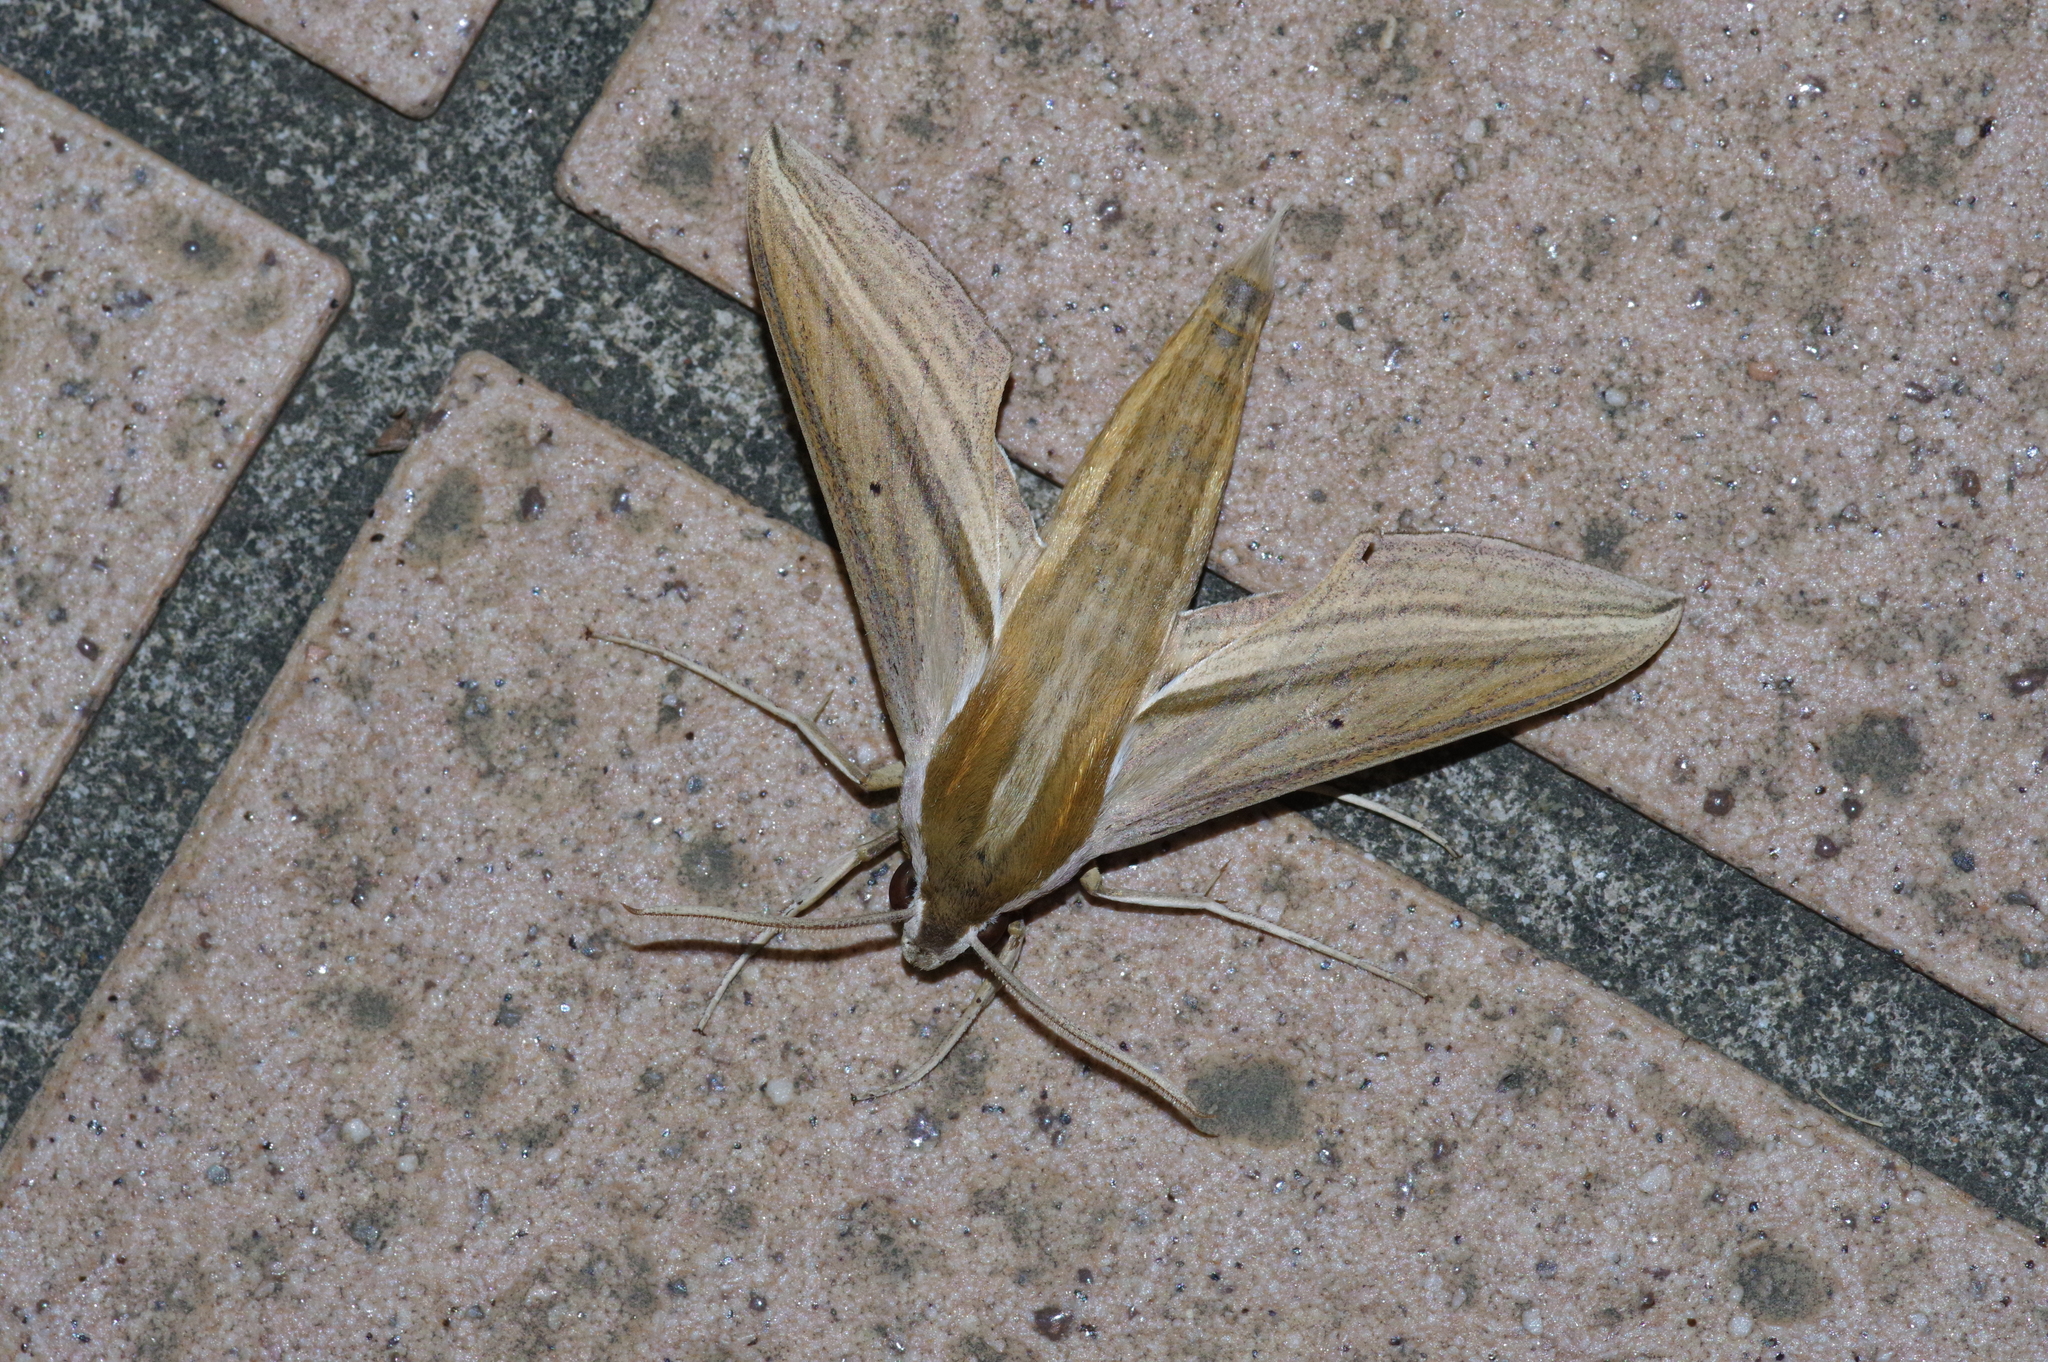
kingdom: Animalia
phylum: Arthropoda
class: Insecta
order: Lepidoptera
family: Sphingidae
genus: Theretra
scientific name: Theretra japonica
